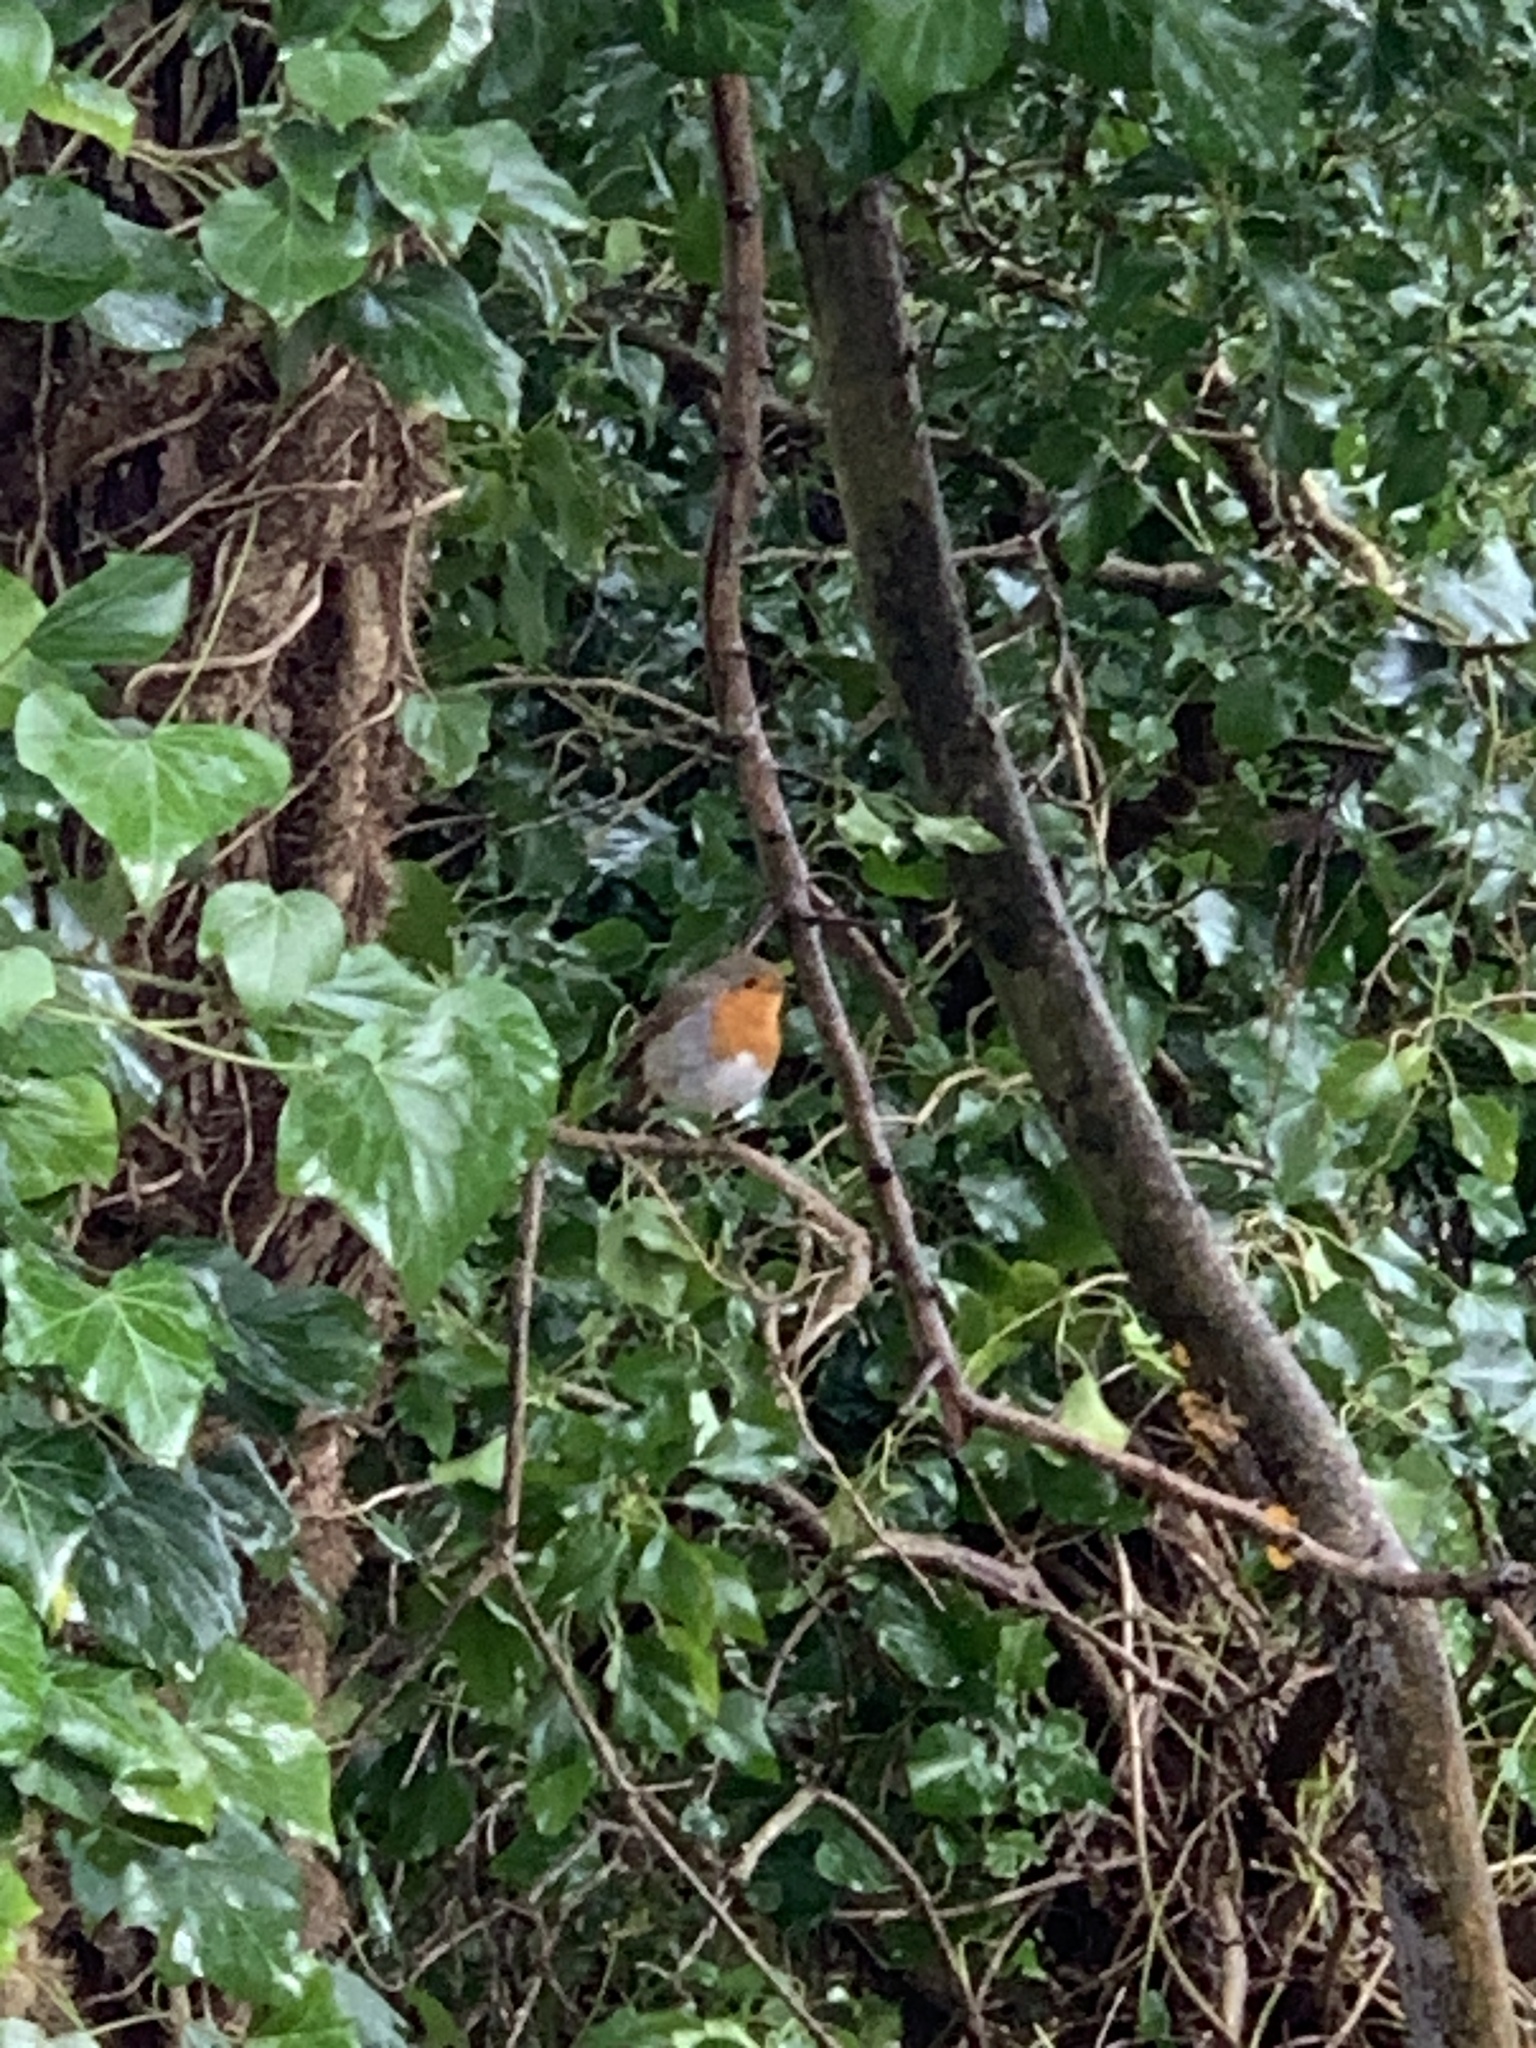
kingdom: Animalia
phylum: Chordata
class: Aves
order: Passeriformes
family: Muscicapidae
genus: Erithacus
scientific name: Erithacus rubecula
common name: European robin
